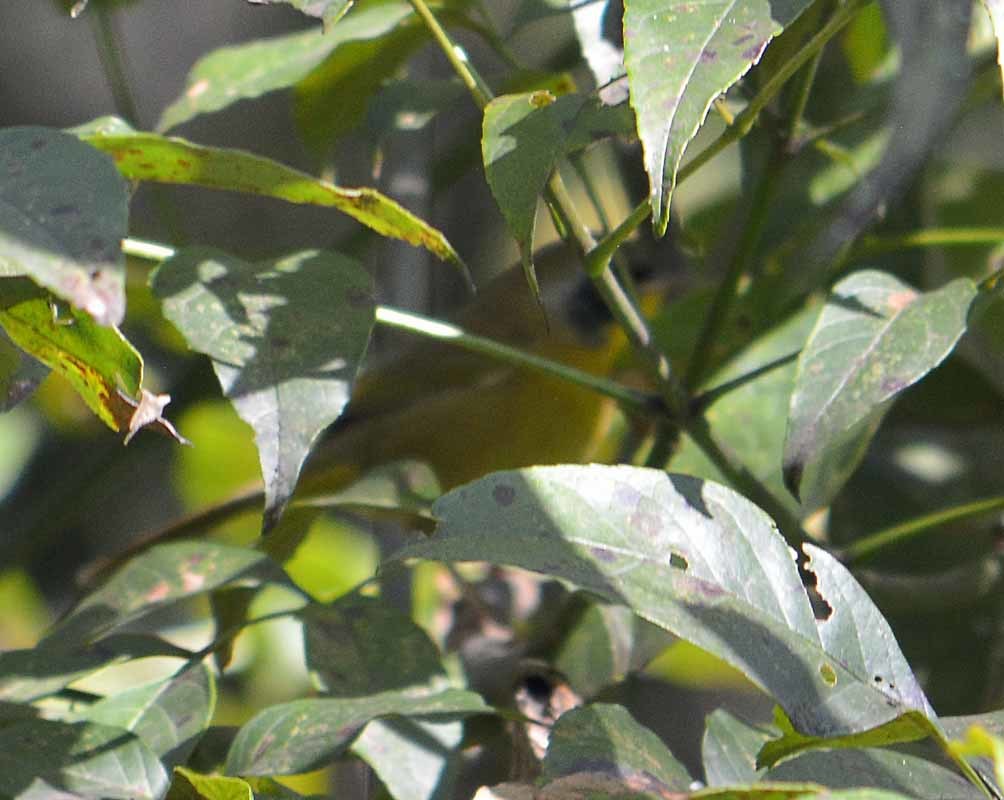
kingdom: Animalia
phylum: Chordata
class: Aves
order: Passeriformes
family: Parulidae
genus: Geothlypis
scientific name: Geothlypis trichas
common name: Common yellowthroat
